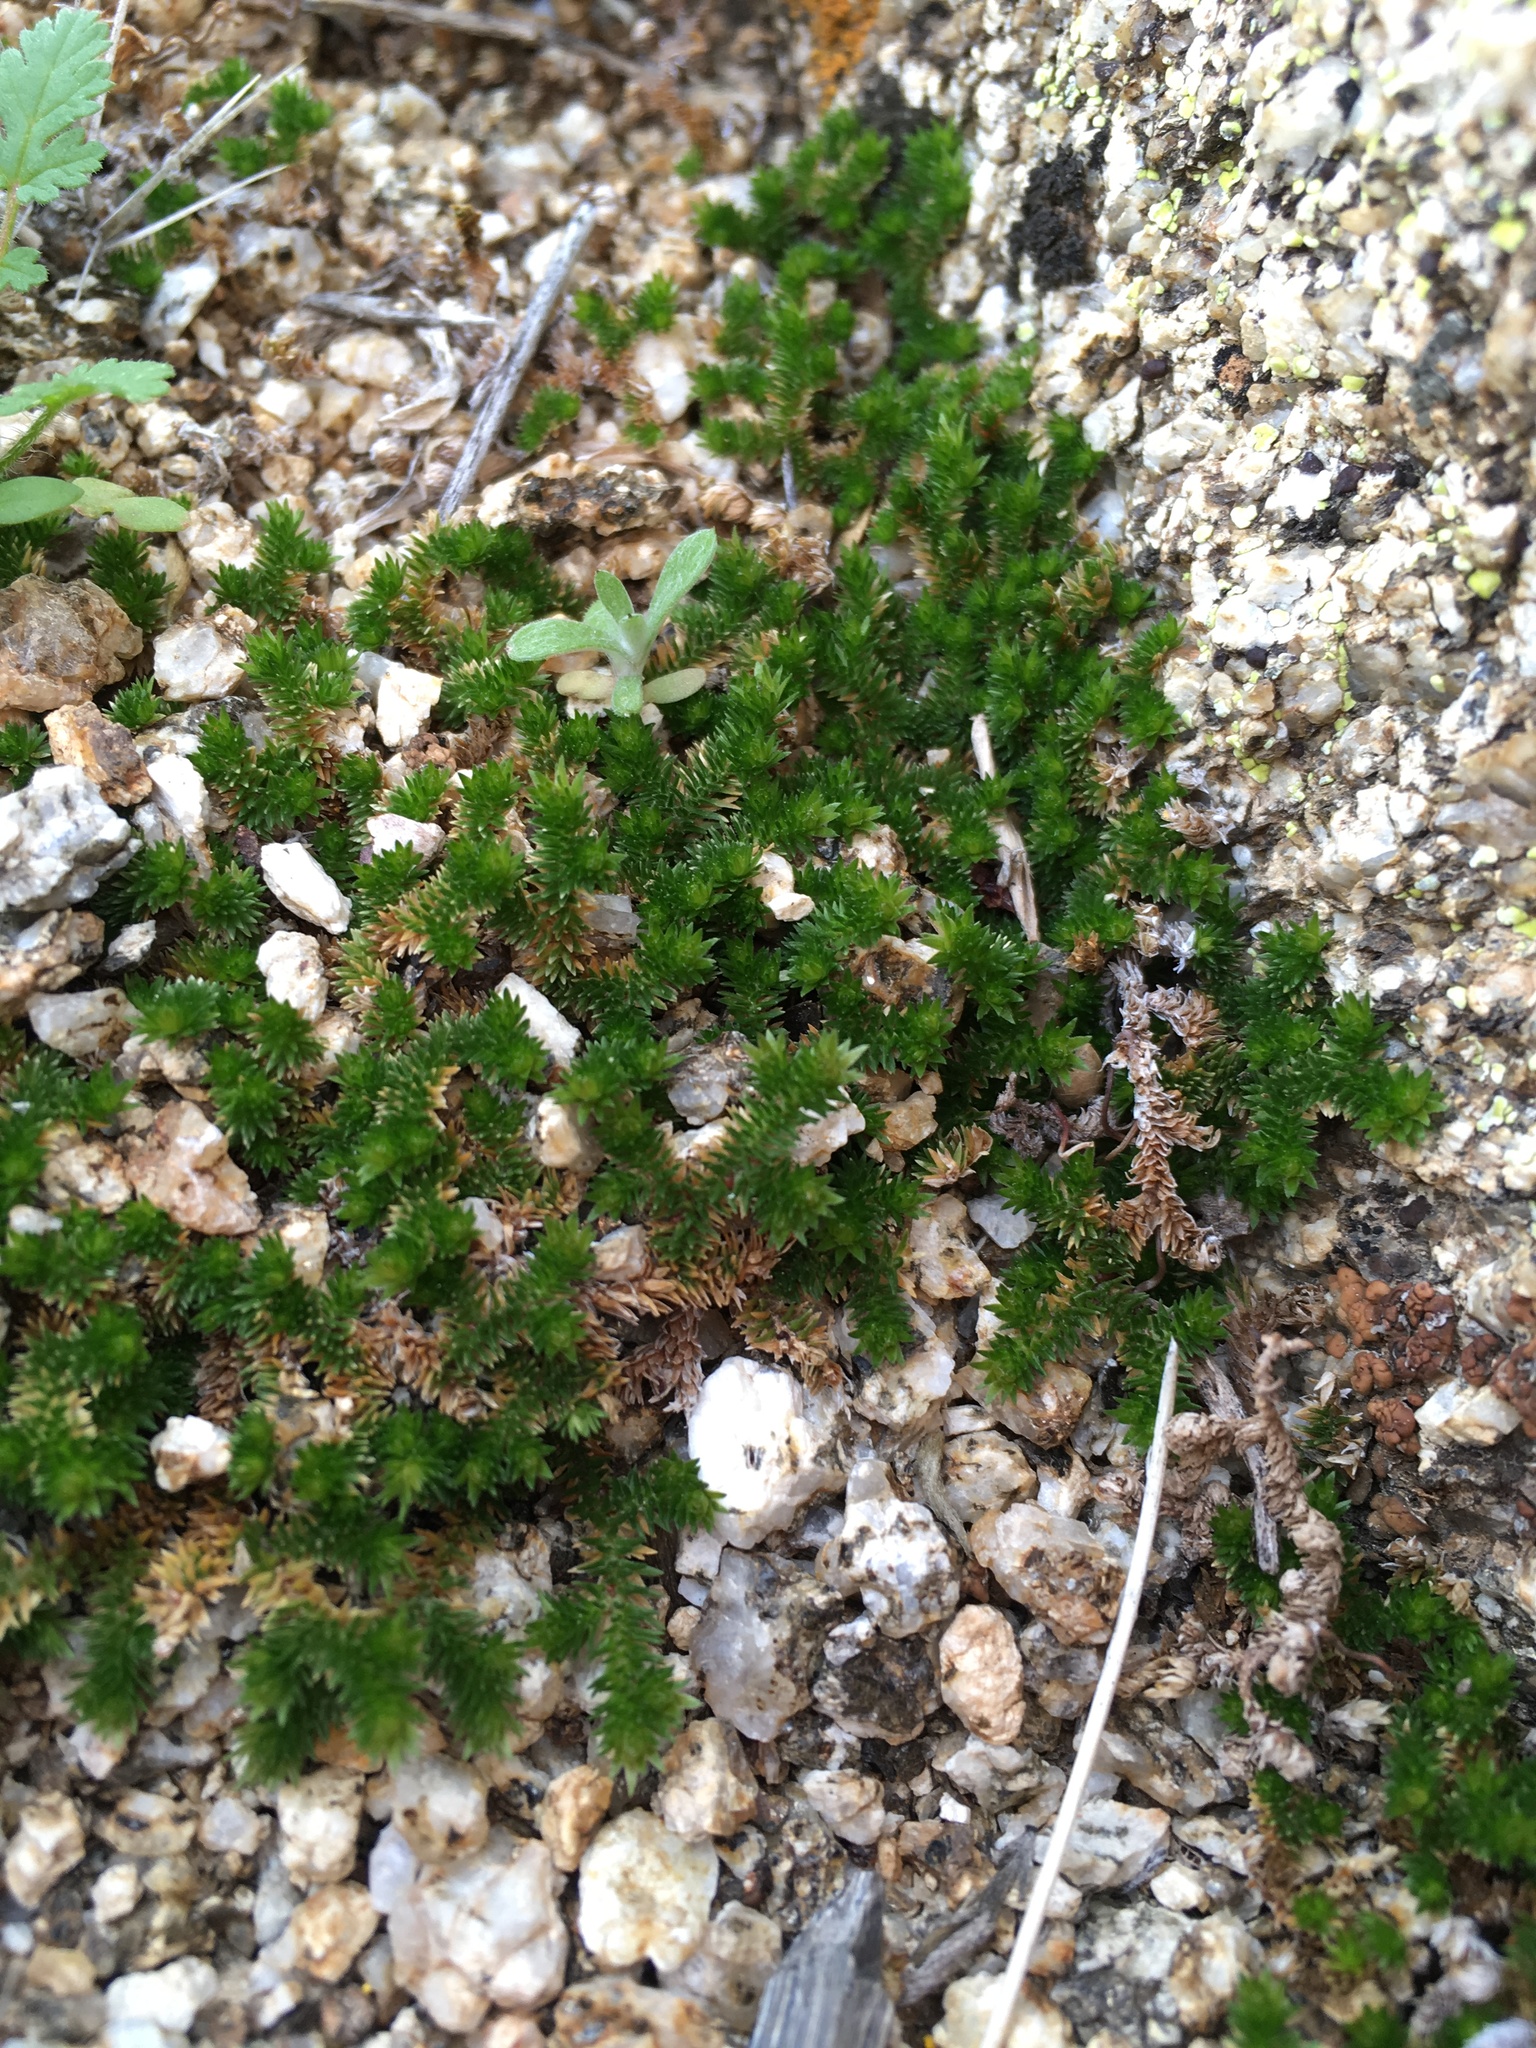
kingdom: Plantae
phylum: Tracheophyta
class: Lycopodiopsida
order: Selaginellales
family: Selaginellaceae
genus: Selaginella
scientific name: Selaginella eremophila
